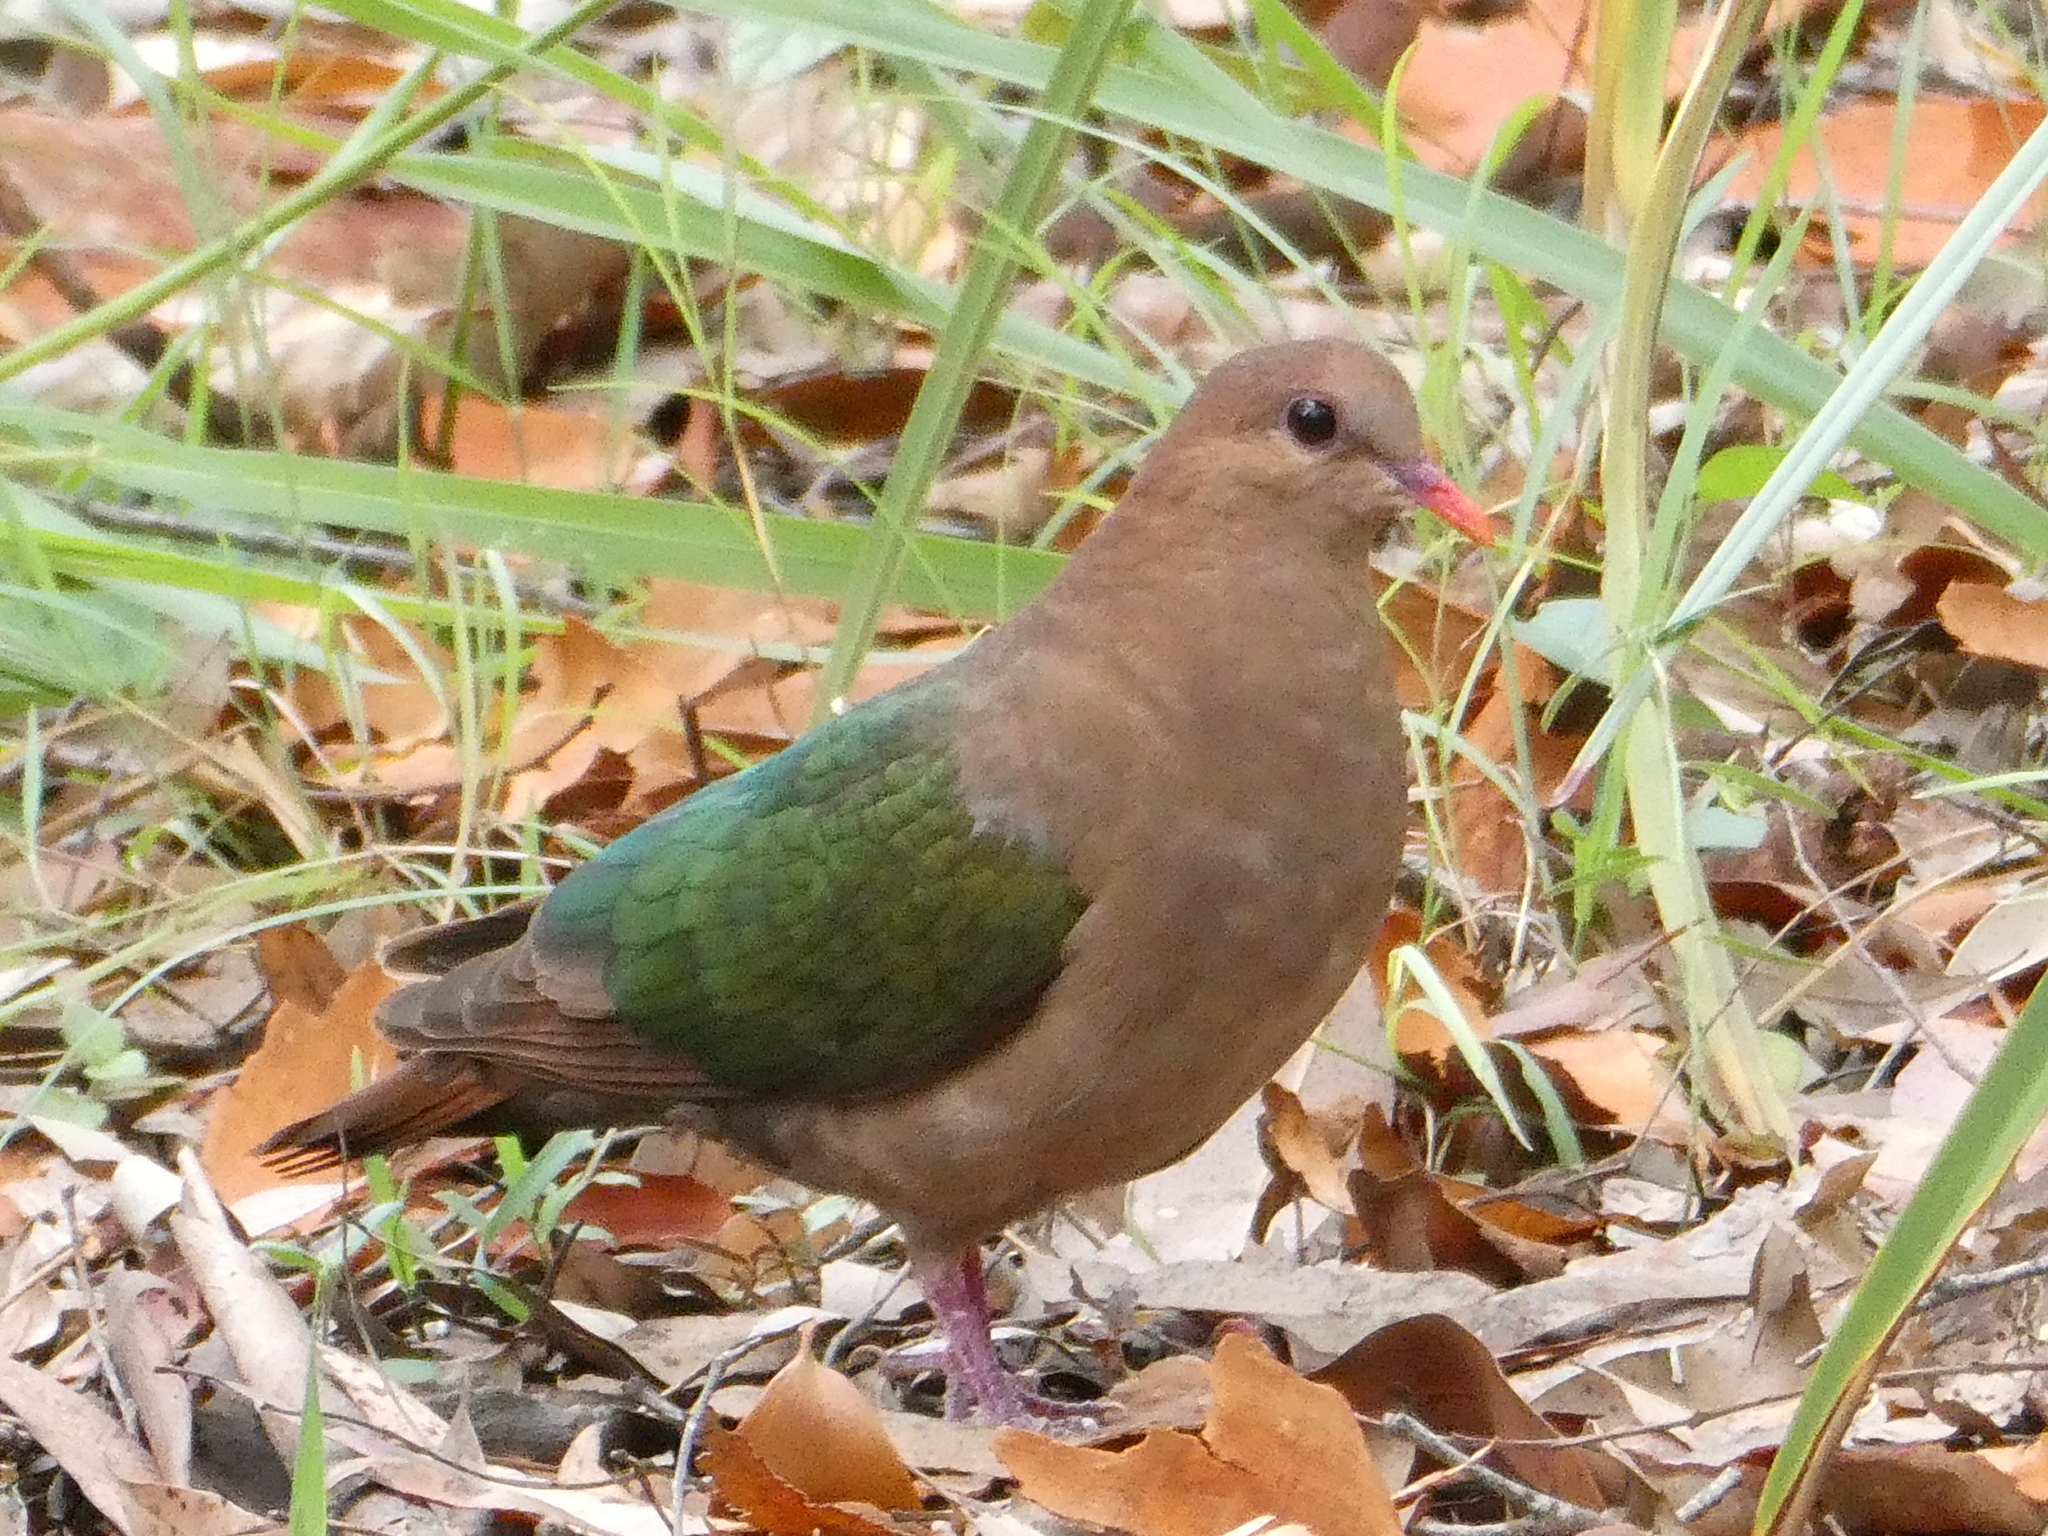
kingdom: Animalia
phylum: Chordata
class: Aves
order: Columbiformes
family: Columbidae
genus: Chalcophaps
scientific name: Chalcophaps longirostris
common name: Pacific emerald dove
